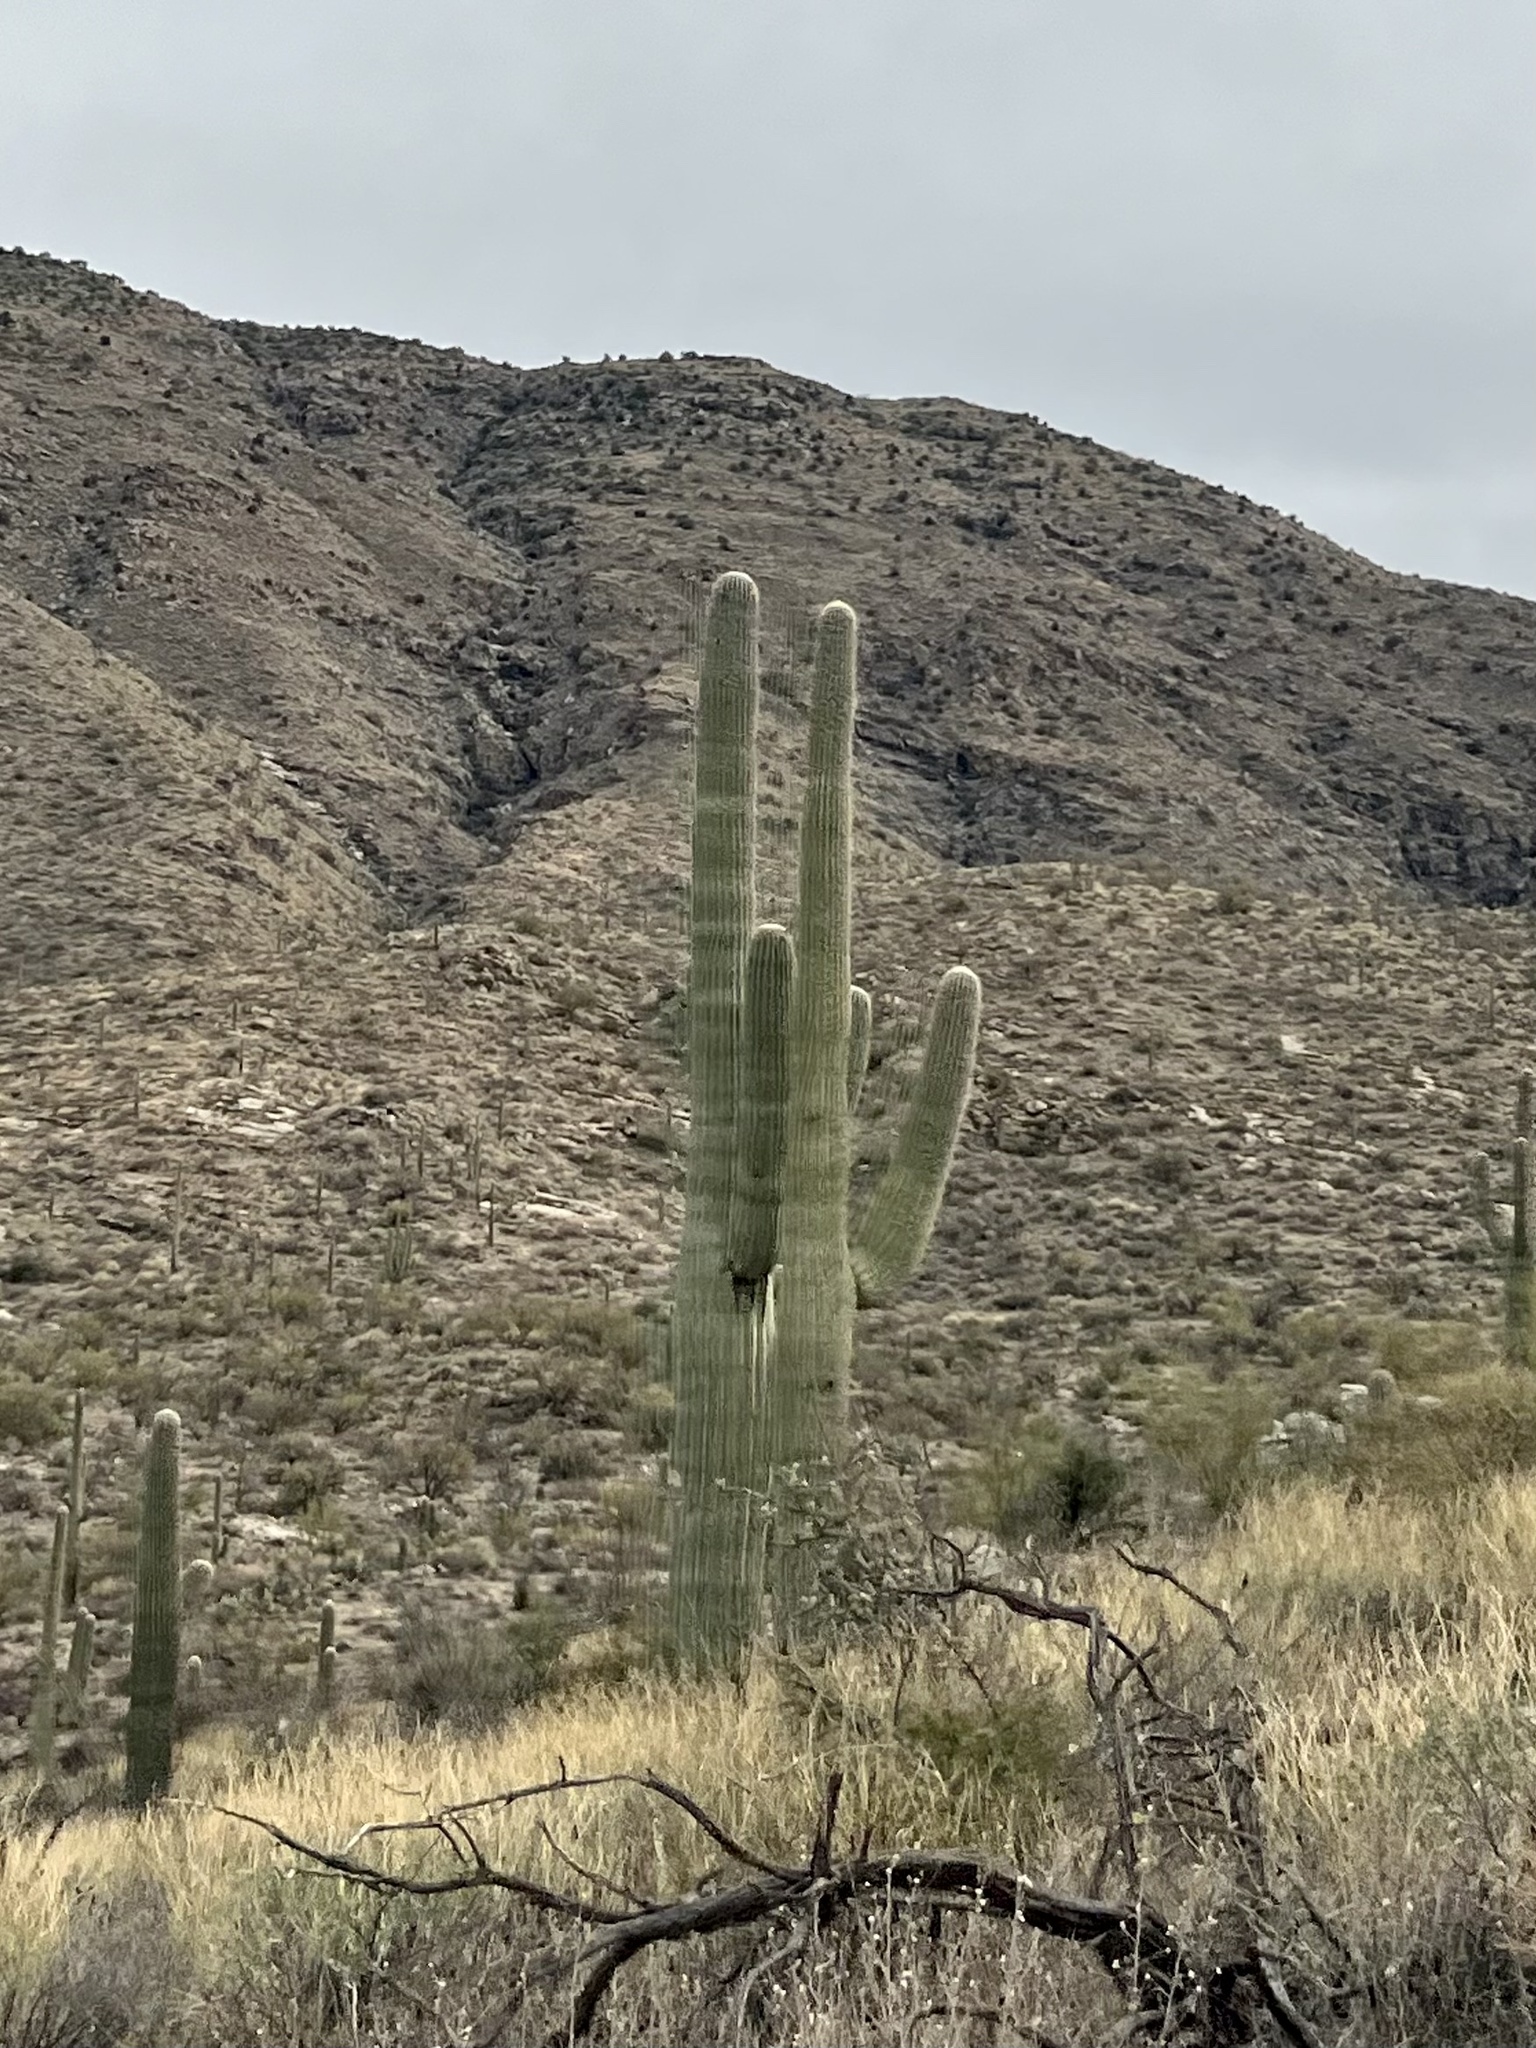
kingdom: Plantae
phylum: Tracheophyta
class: Magnoliopsida
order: Caryophyllales
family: Cactaceae
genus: Carnegiea
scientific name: Carnegiea gigantea
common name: Saguaro
